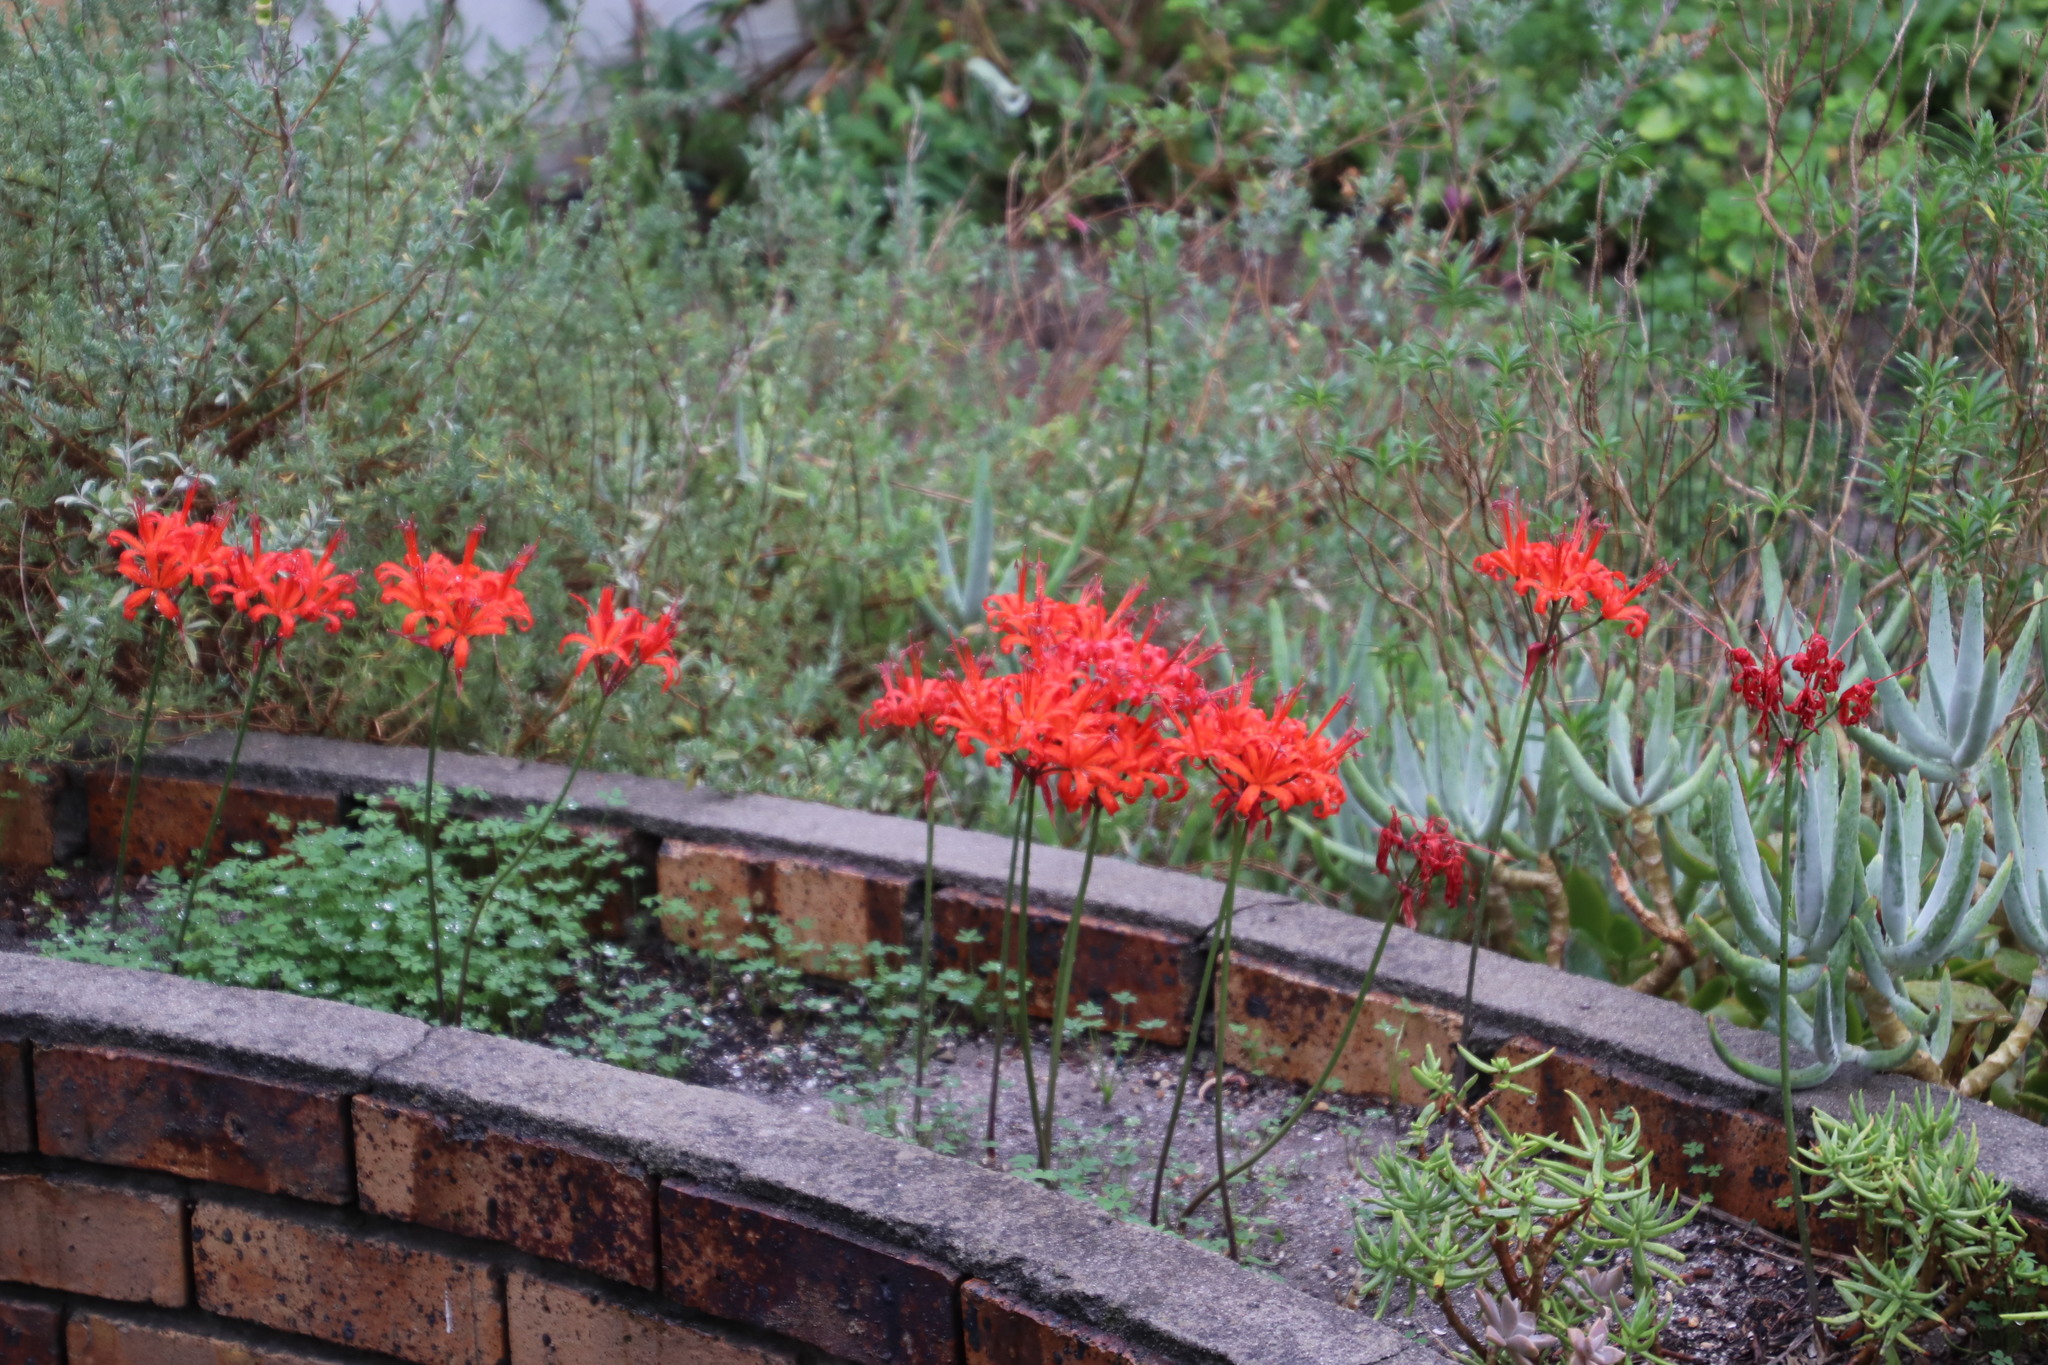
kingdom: Plantae
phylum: Tracheophyta
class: Liliopsida
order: Asparagales
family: Amaryllidaceae
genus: Nerine
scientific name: Nerine sarniensis
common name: Guernsey-lily
